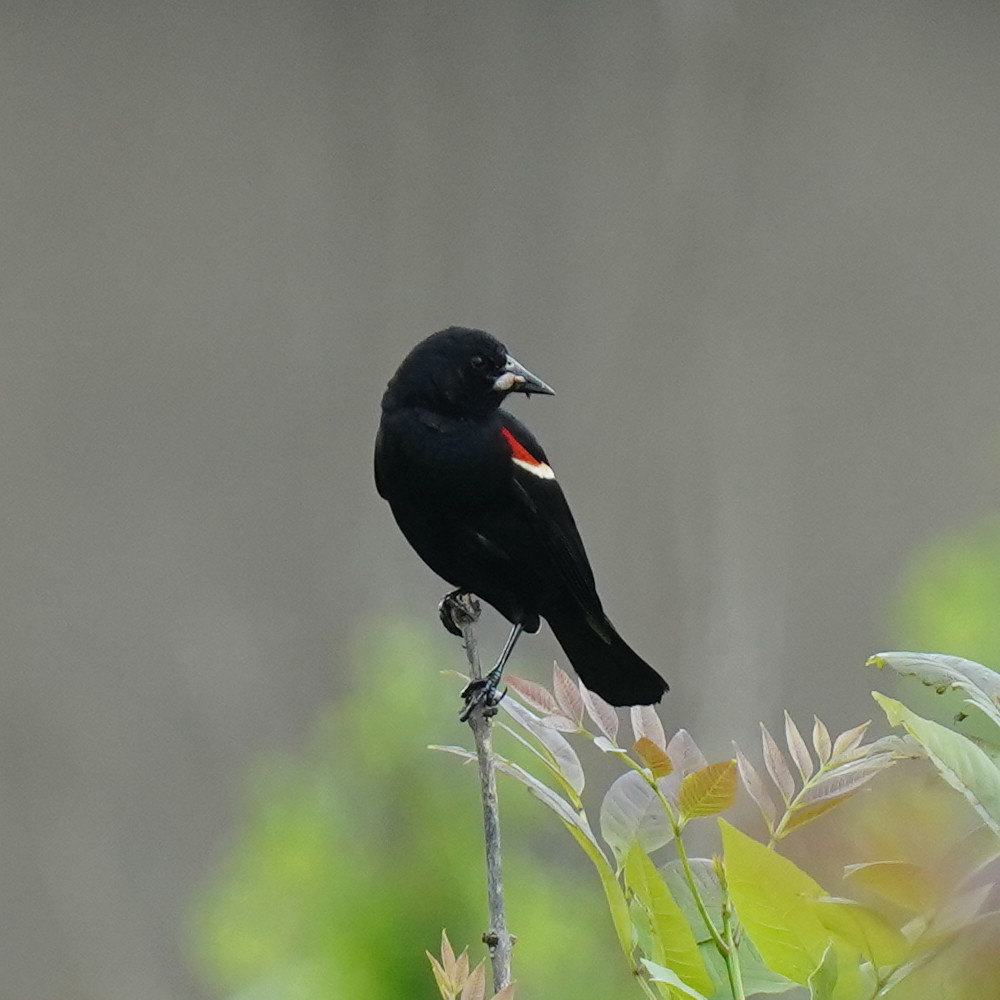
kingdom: Animalia
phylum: Chordata
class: Aves
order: Passeriformes
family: Icteridae
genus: Agelaius
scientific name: Agelaius phoeniceus
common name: Red-winged blackbird
